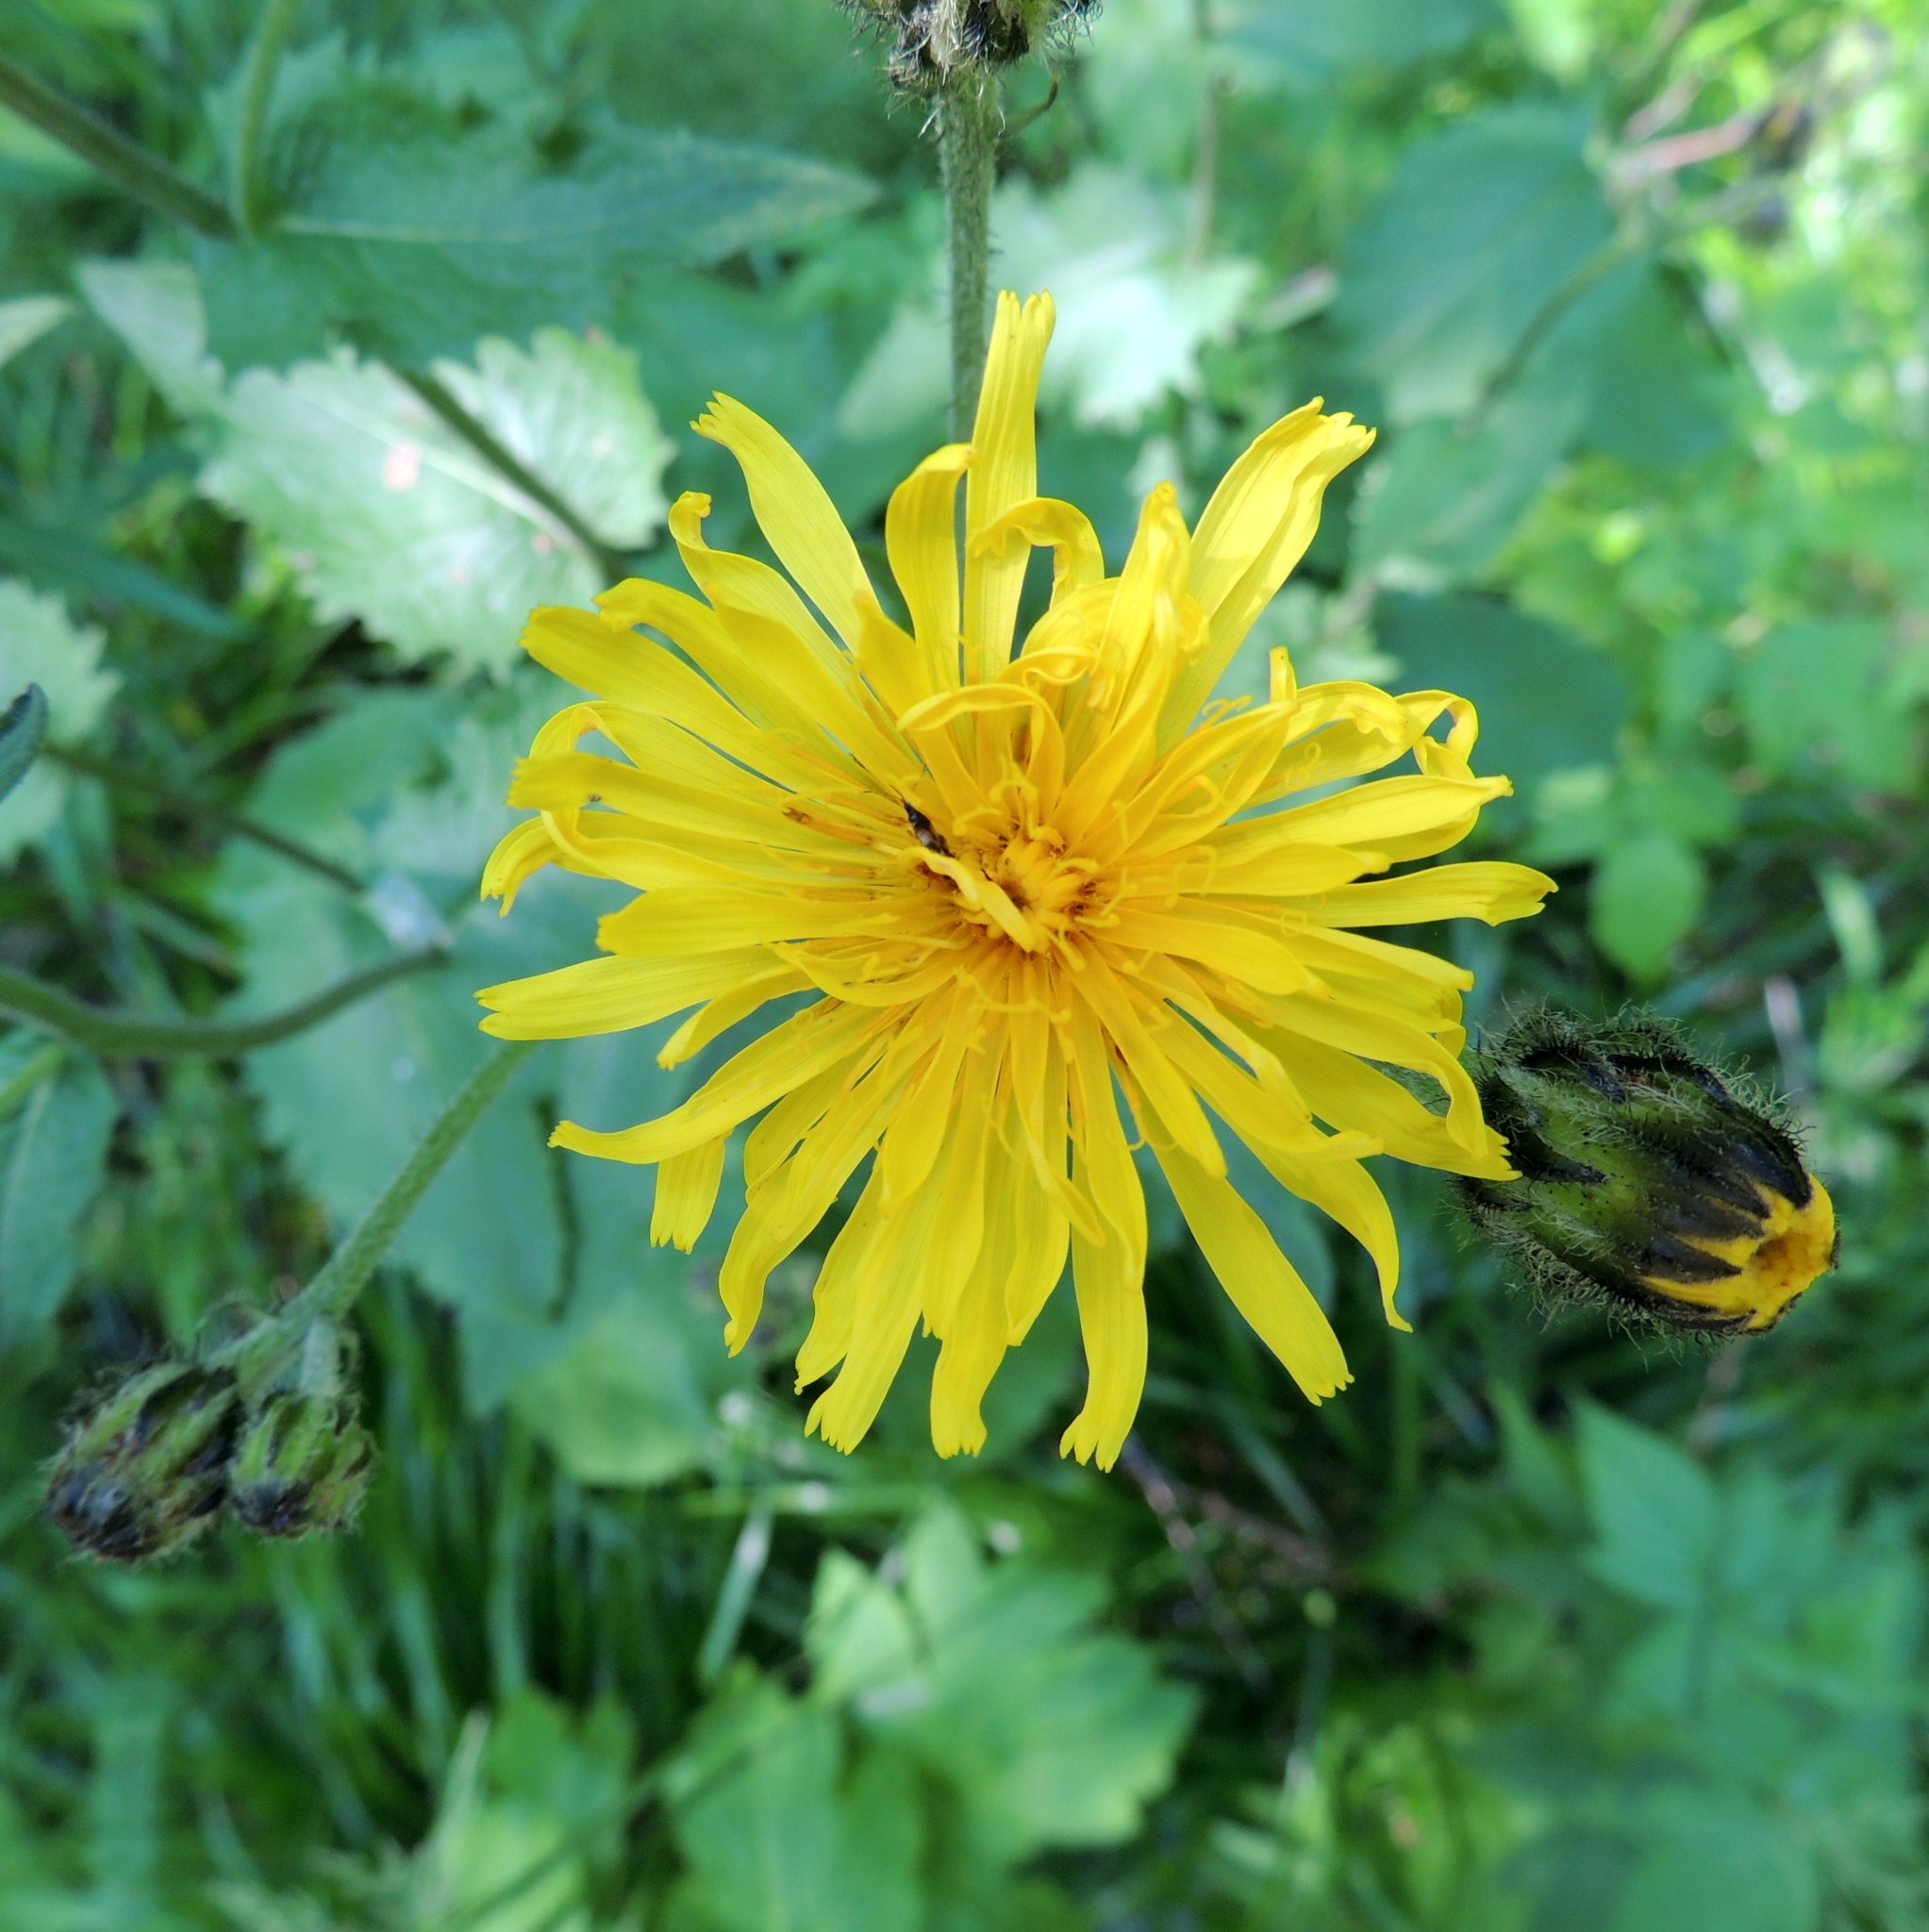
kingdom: Plantae
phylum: Tracheophyta
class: Magnoliopsida
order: Asterales
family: Asteraceae
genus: Crepis
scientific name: Crepis sibirica
